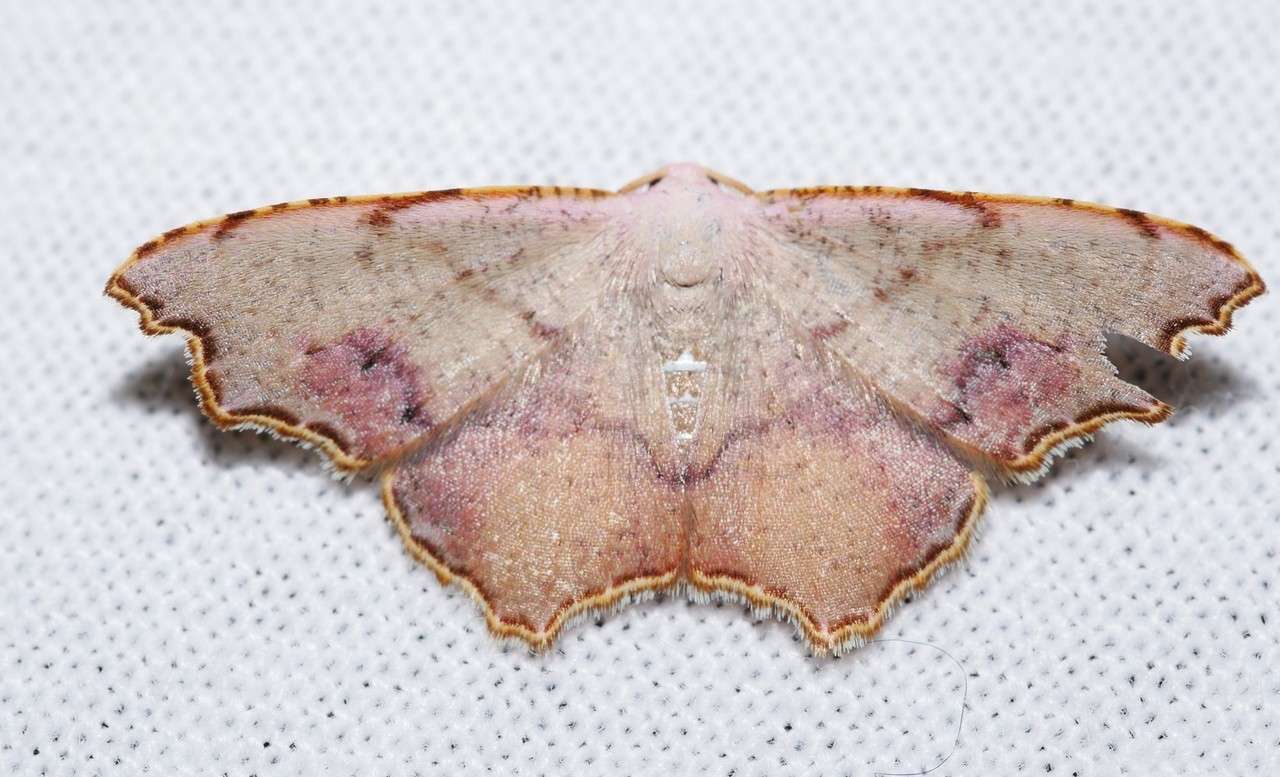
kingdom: Animalia
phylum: Arthropoda
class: Insecta
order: Lepidoptera
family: Geometridae
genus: Epicompsa
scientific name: Epicompsa xanthocrossa
